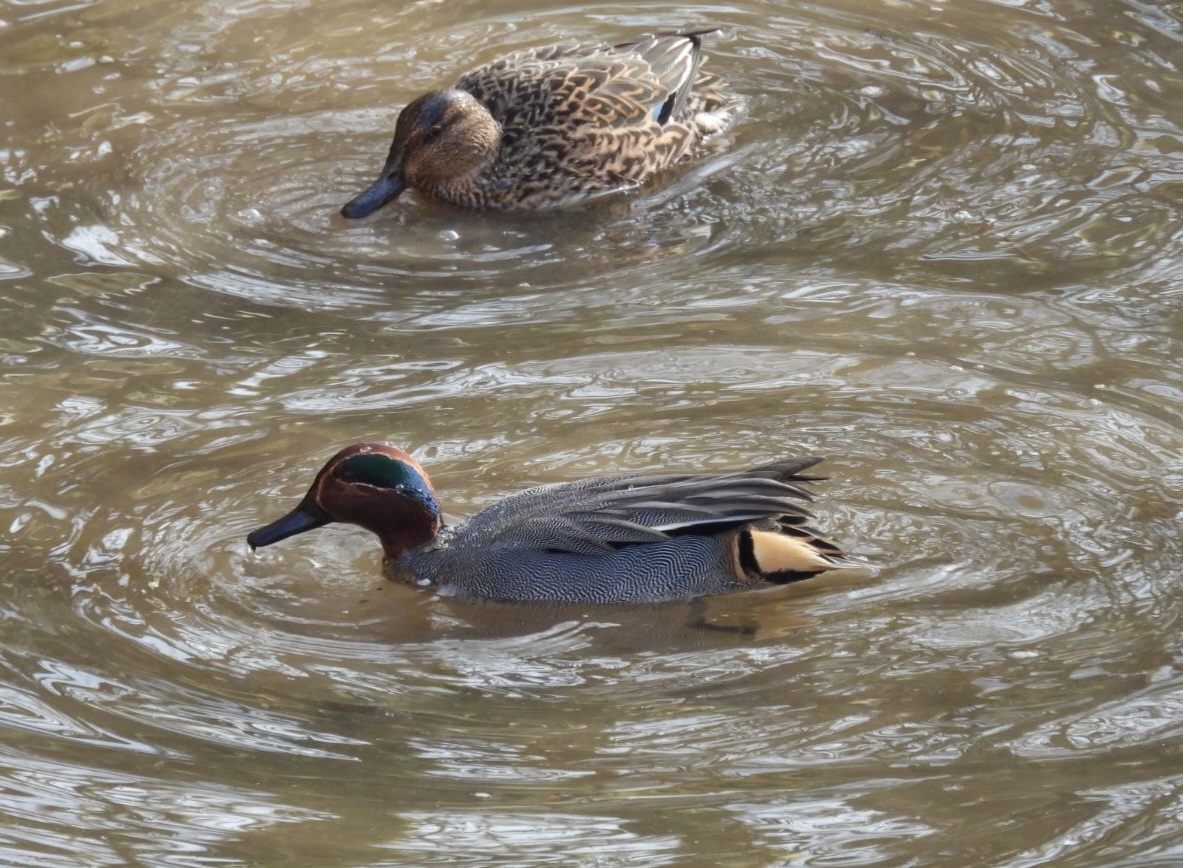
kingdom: Animalia
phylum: Chordata
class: Aves
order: Anseriformes
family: Anatidae
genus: Anas
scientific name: Anas crecca
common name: Eurasian teal
